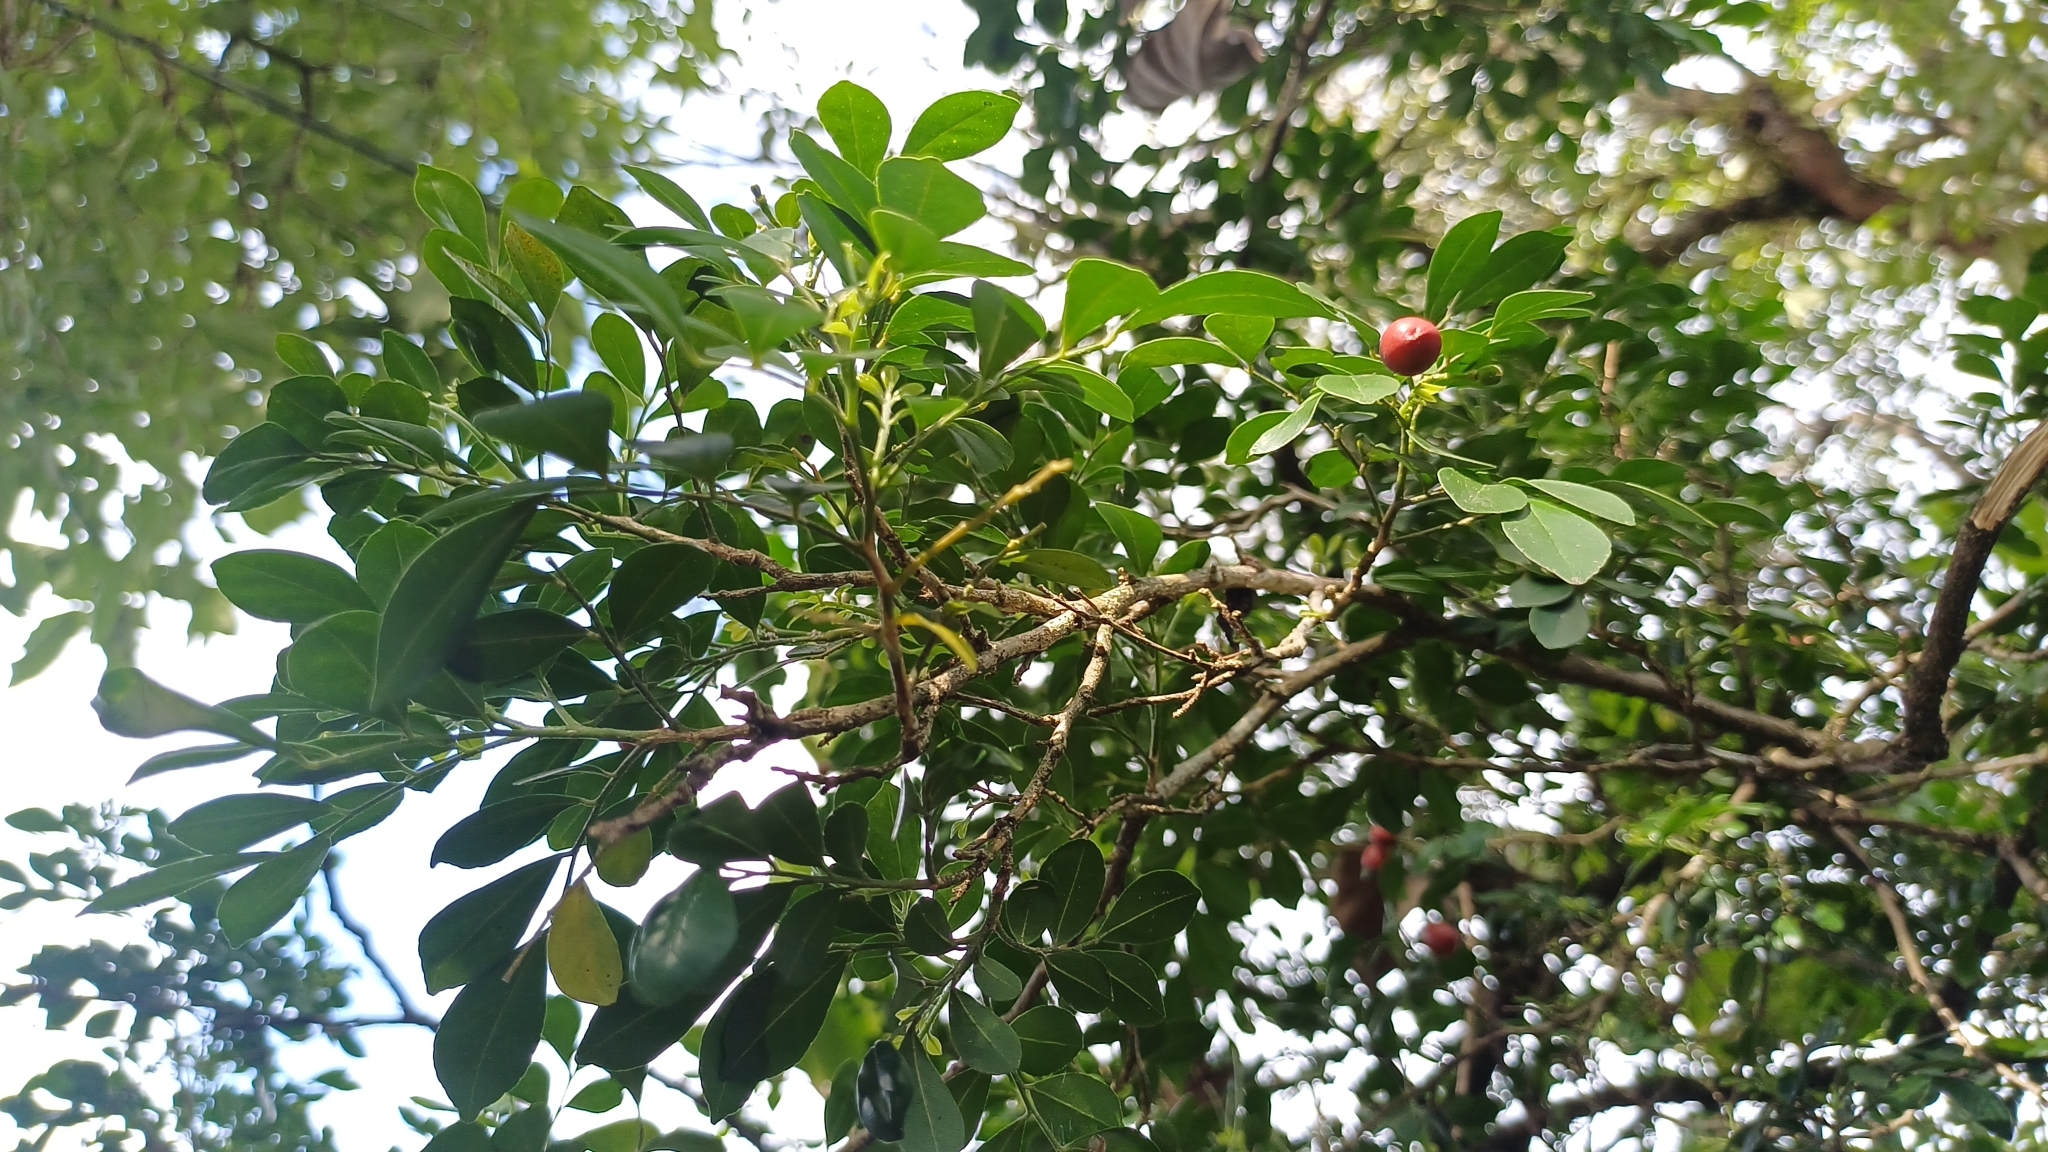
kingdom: Plantae
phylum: Tracheophyta
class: Magnoliopsida
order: Sapindales
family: Rutaceae
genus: Murraya
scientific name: Murraya paniculata
